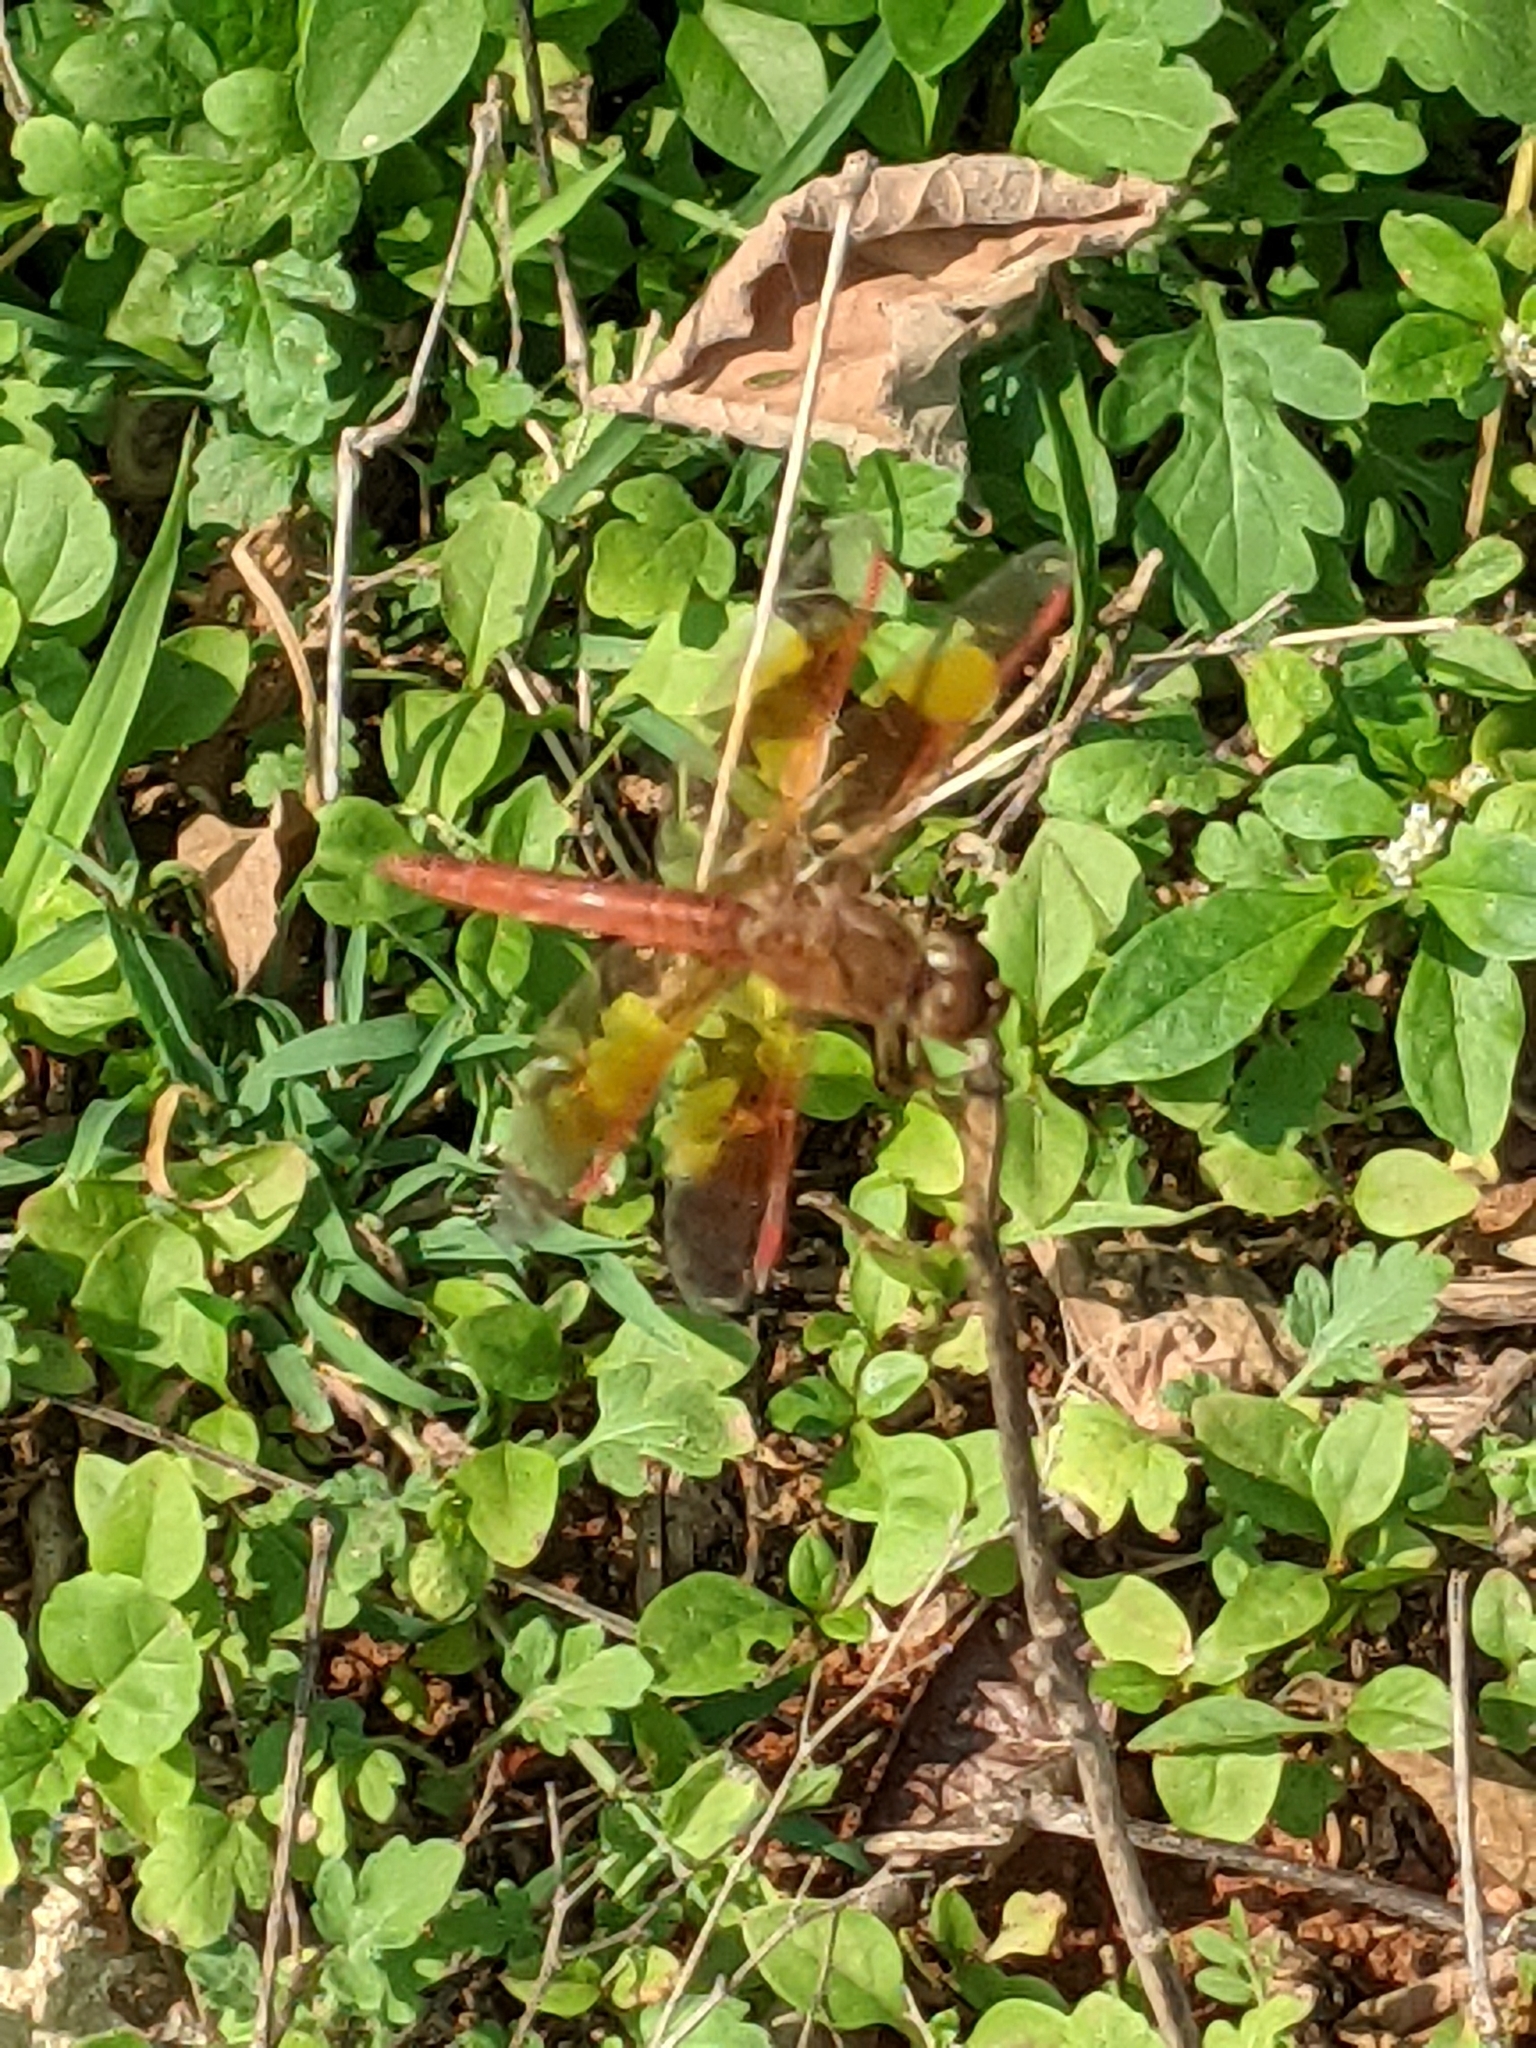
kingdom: Animalia
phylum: Arthropoda
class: Insecta
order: Odonata
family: Libellulidae
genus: Brachythemis
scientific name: Brachythemis contaminata
